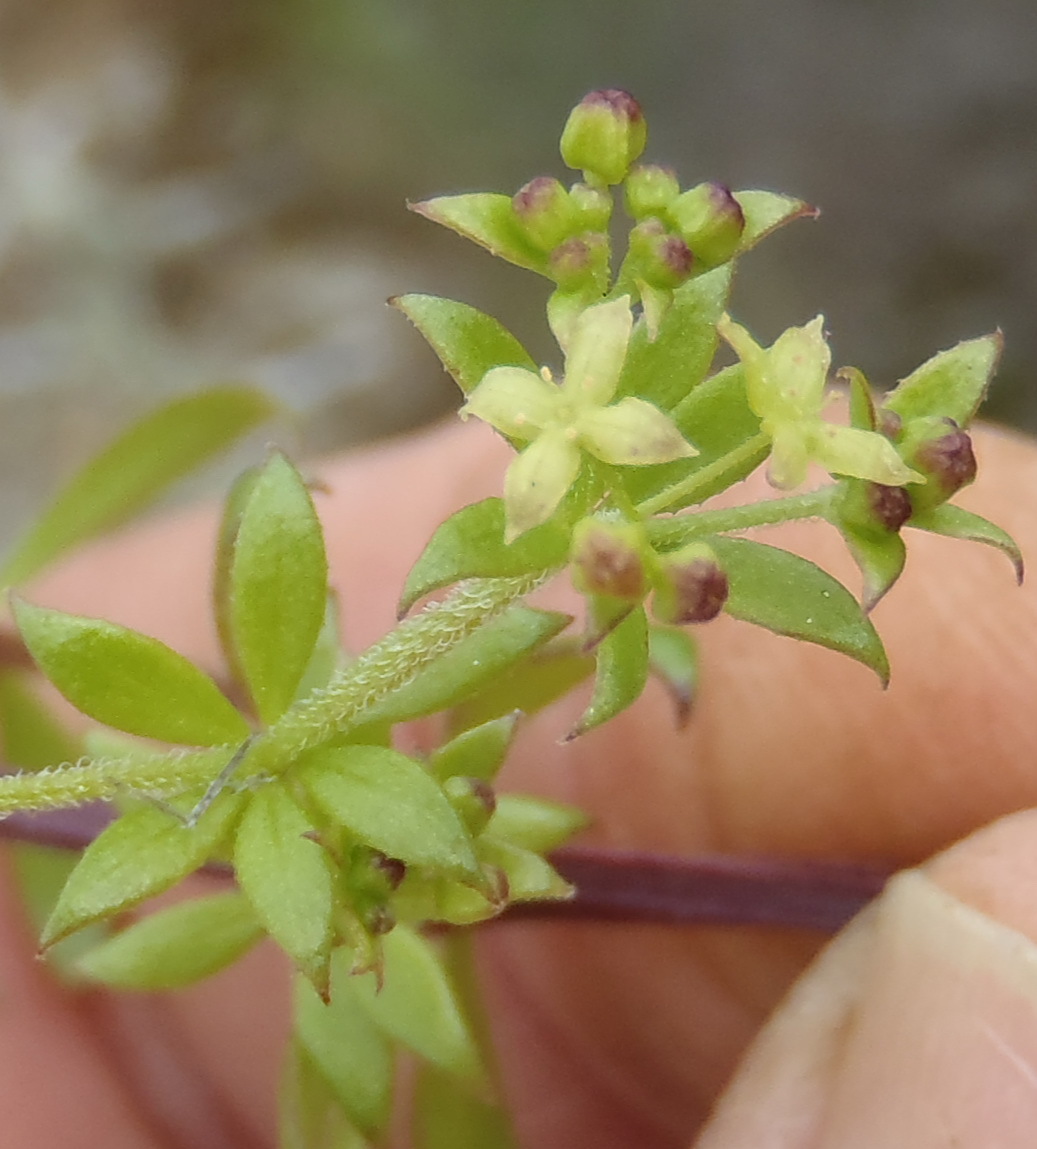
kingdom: Plantae
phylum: Tracheophyta
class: Magnoliopsida
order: Gentianales
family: Rubiaceae
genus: Galium
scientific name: Galium capense
